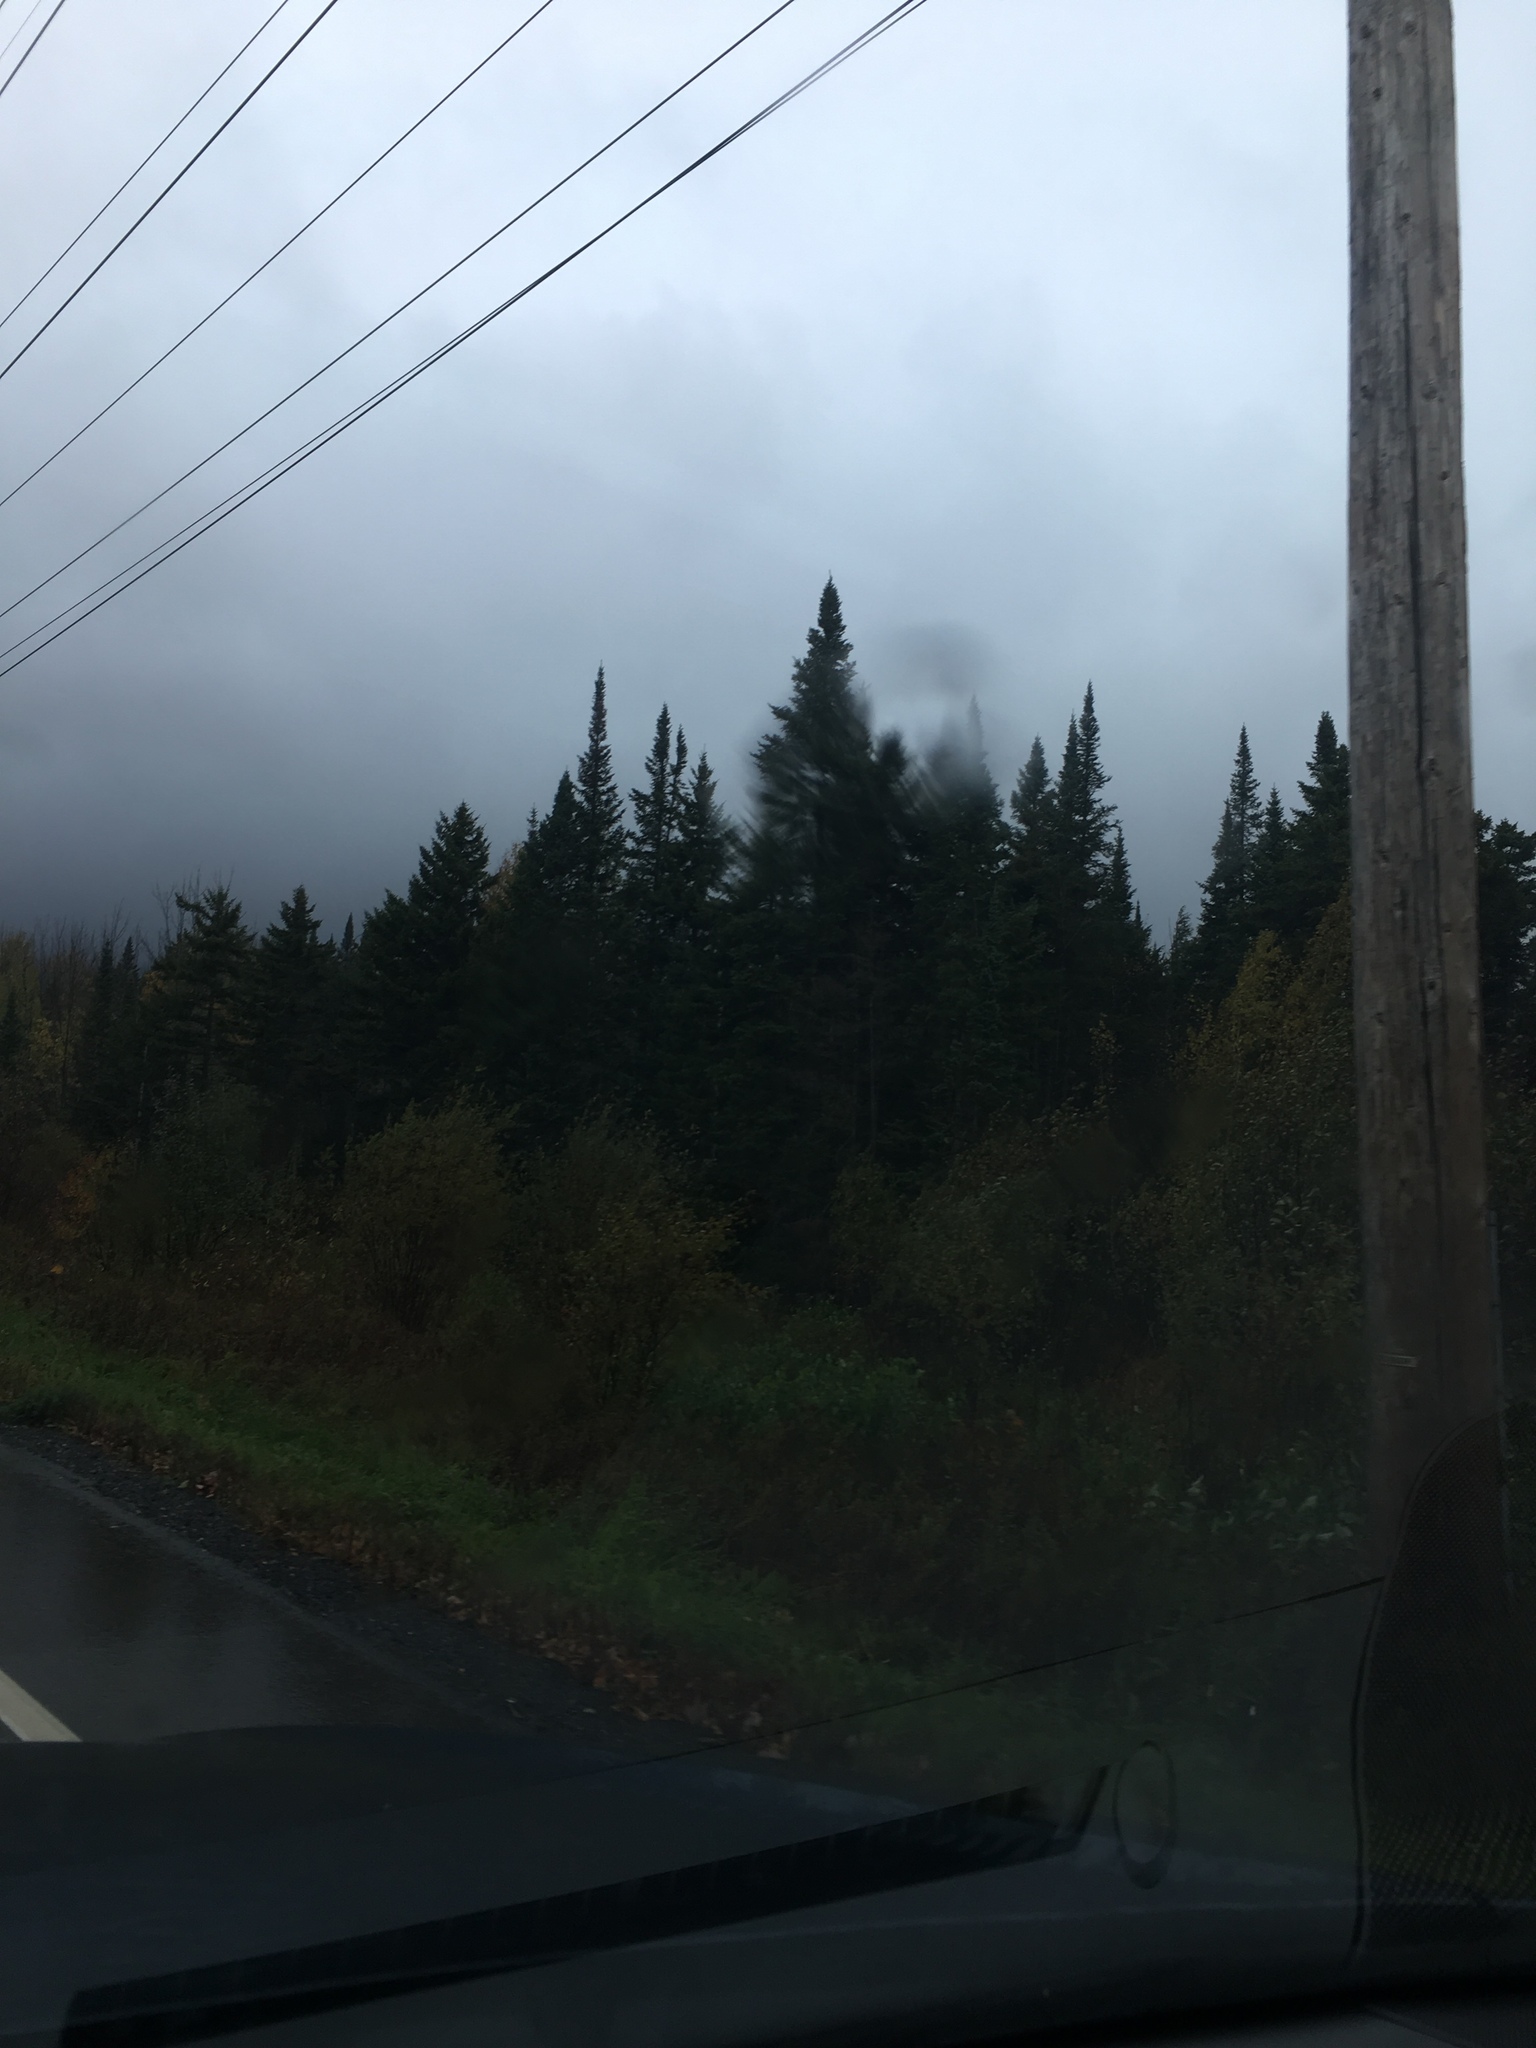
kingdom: Plantae
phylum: Tracheophyta
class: Pinopsida
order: Pinales
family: Pinaceae
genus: Abies
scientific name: Abies balsamea
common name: Balsam fir
